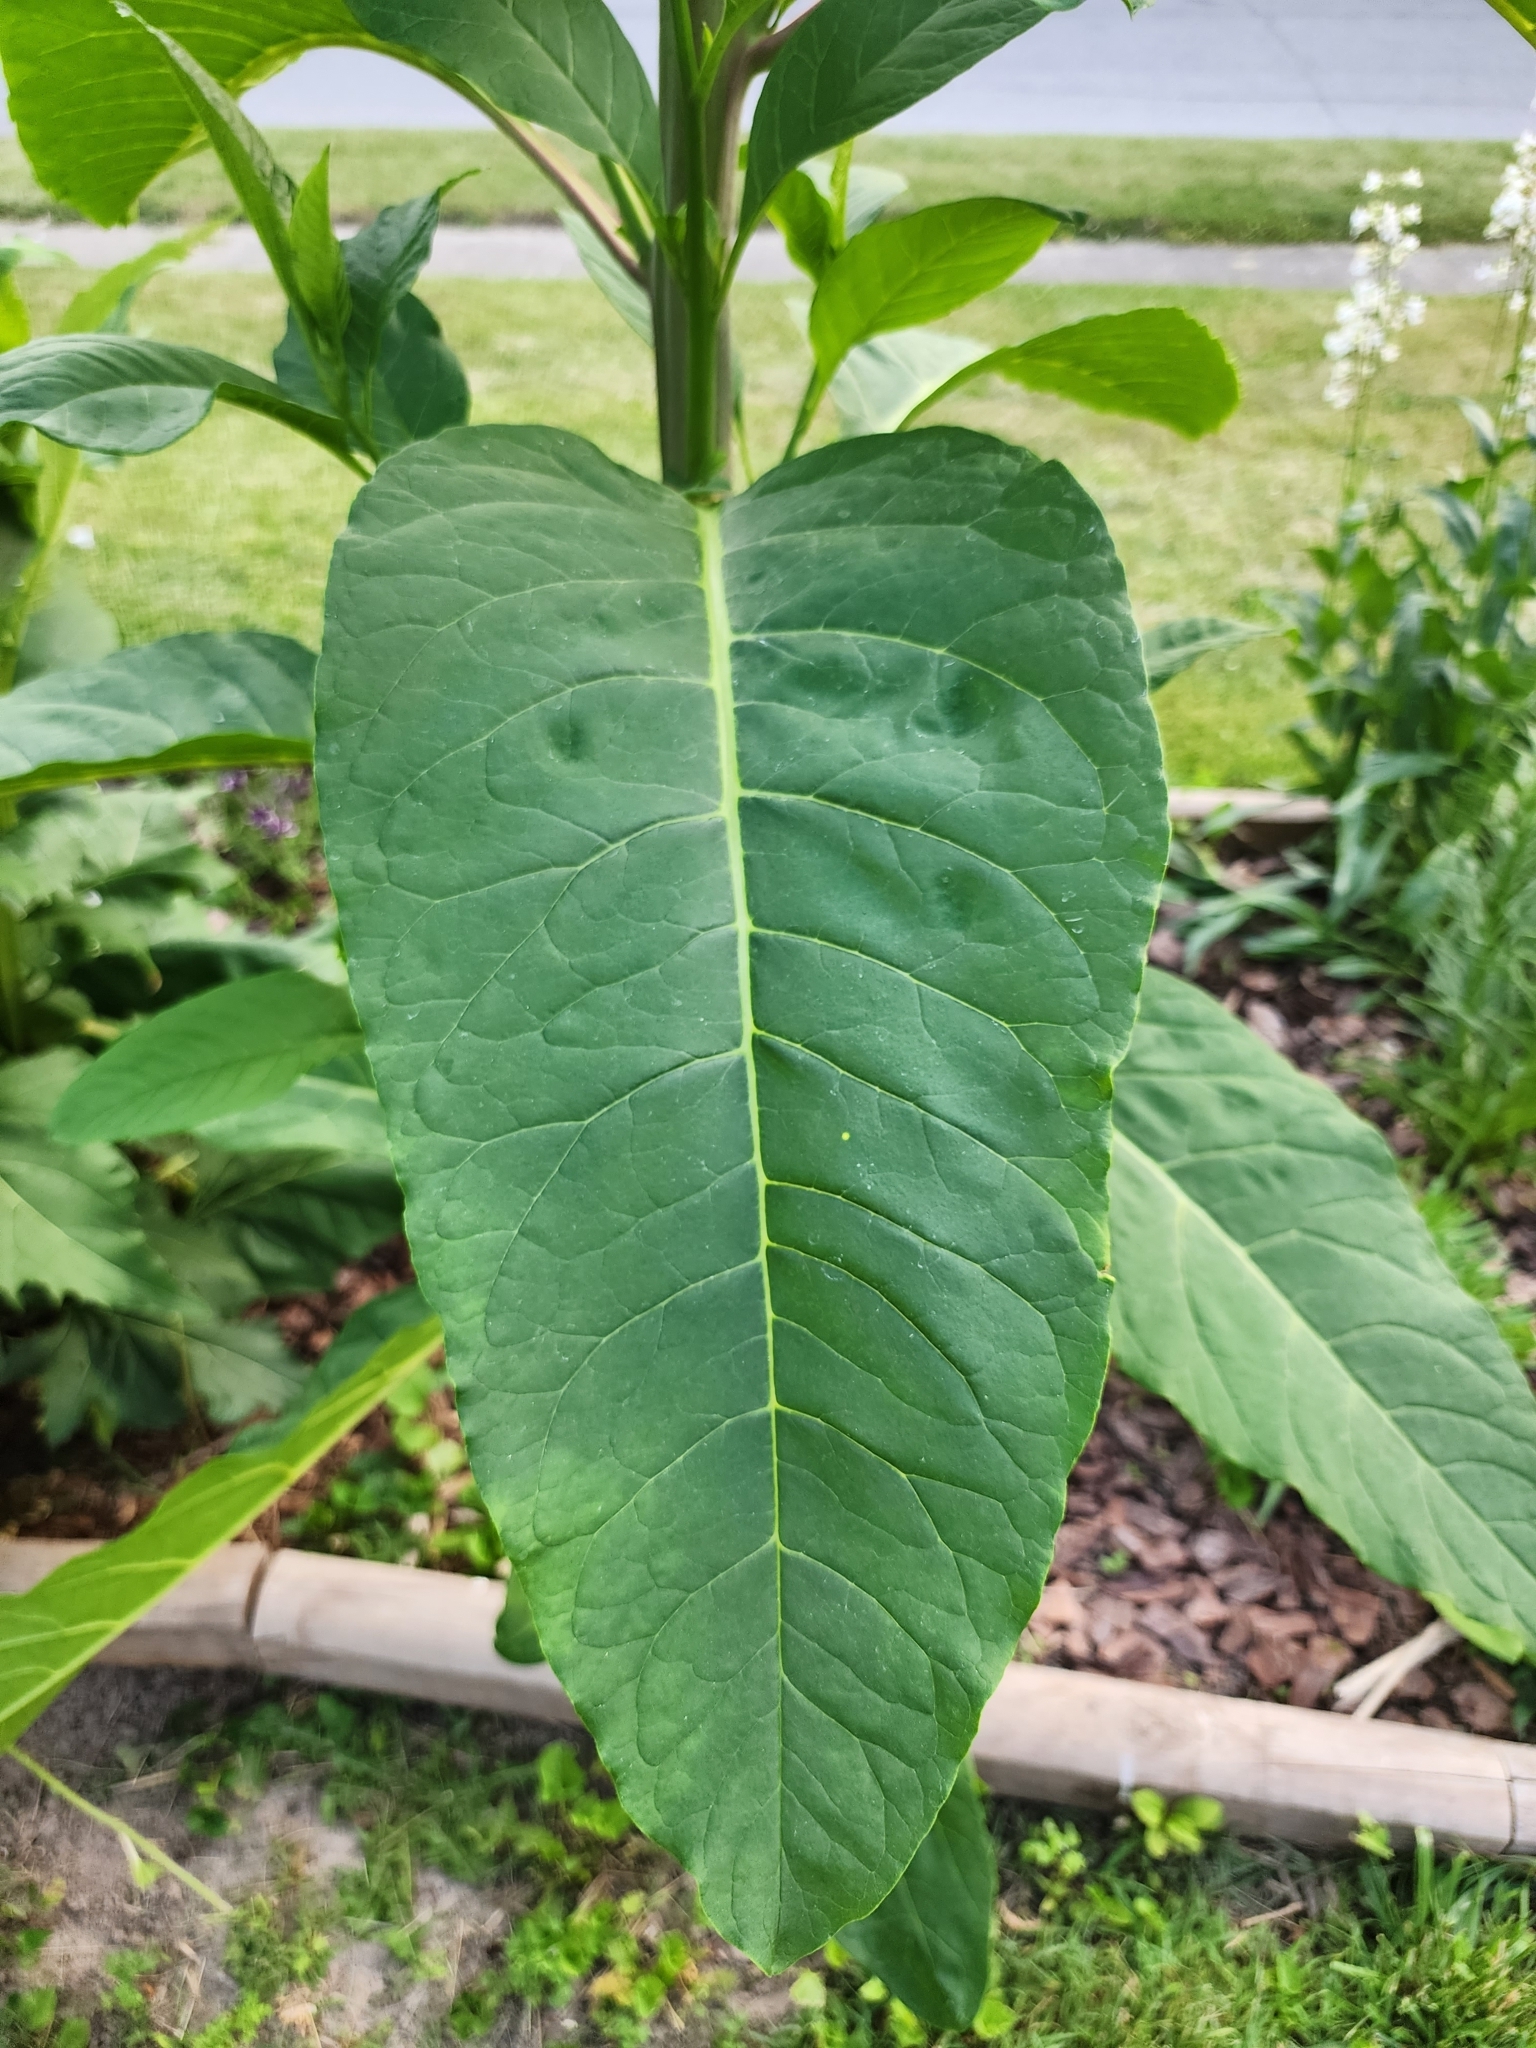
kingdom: Plantae
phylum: Tracheophyta
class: Magnoliopsida
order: Caryophyllales
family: Phytolaccaceae
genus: Phytolacca
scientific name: Phytolacca americana
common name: American pokeweed
